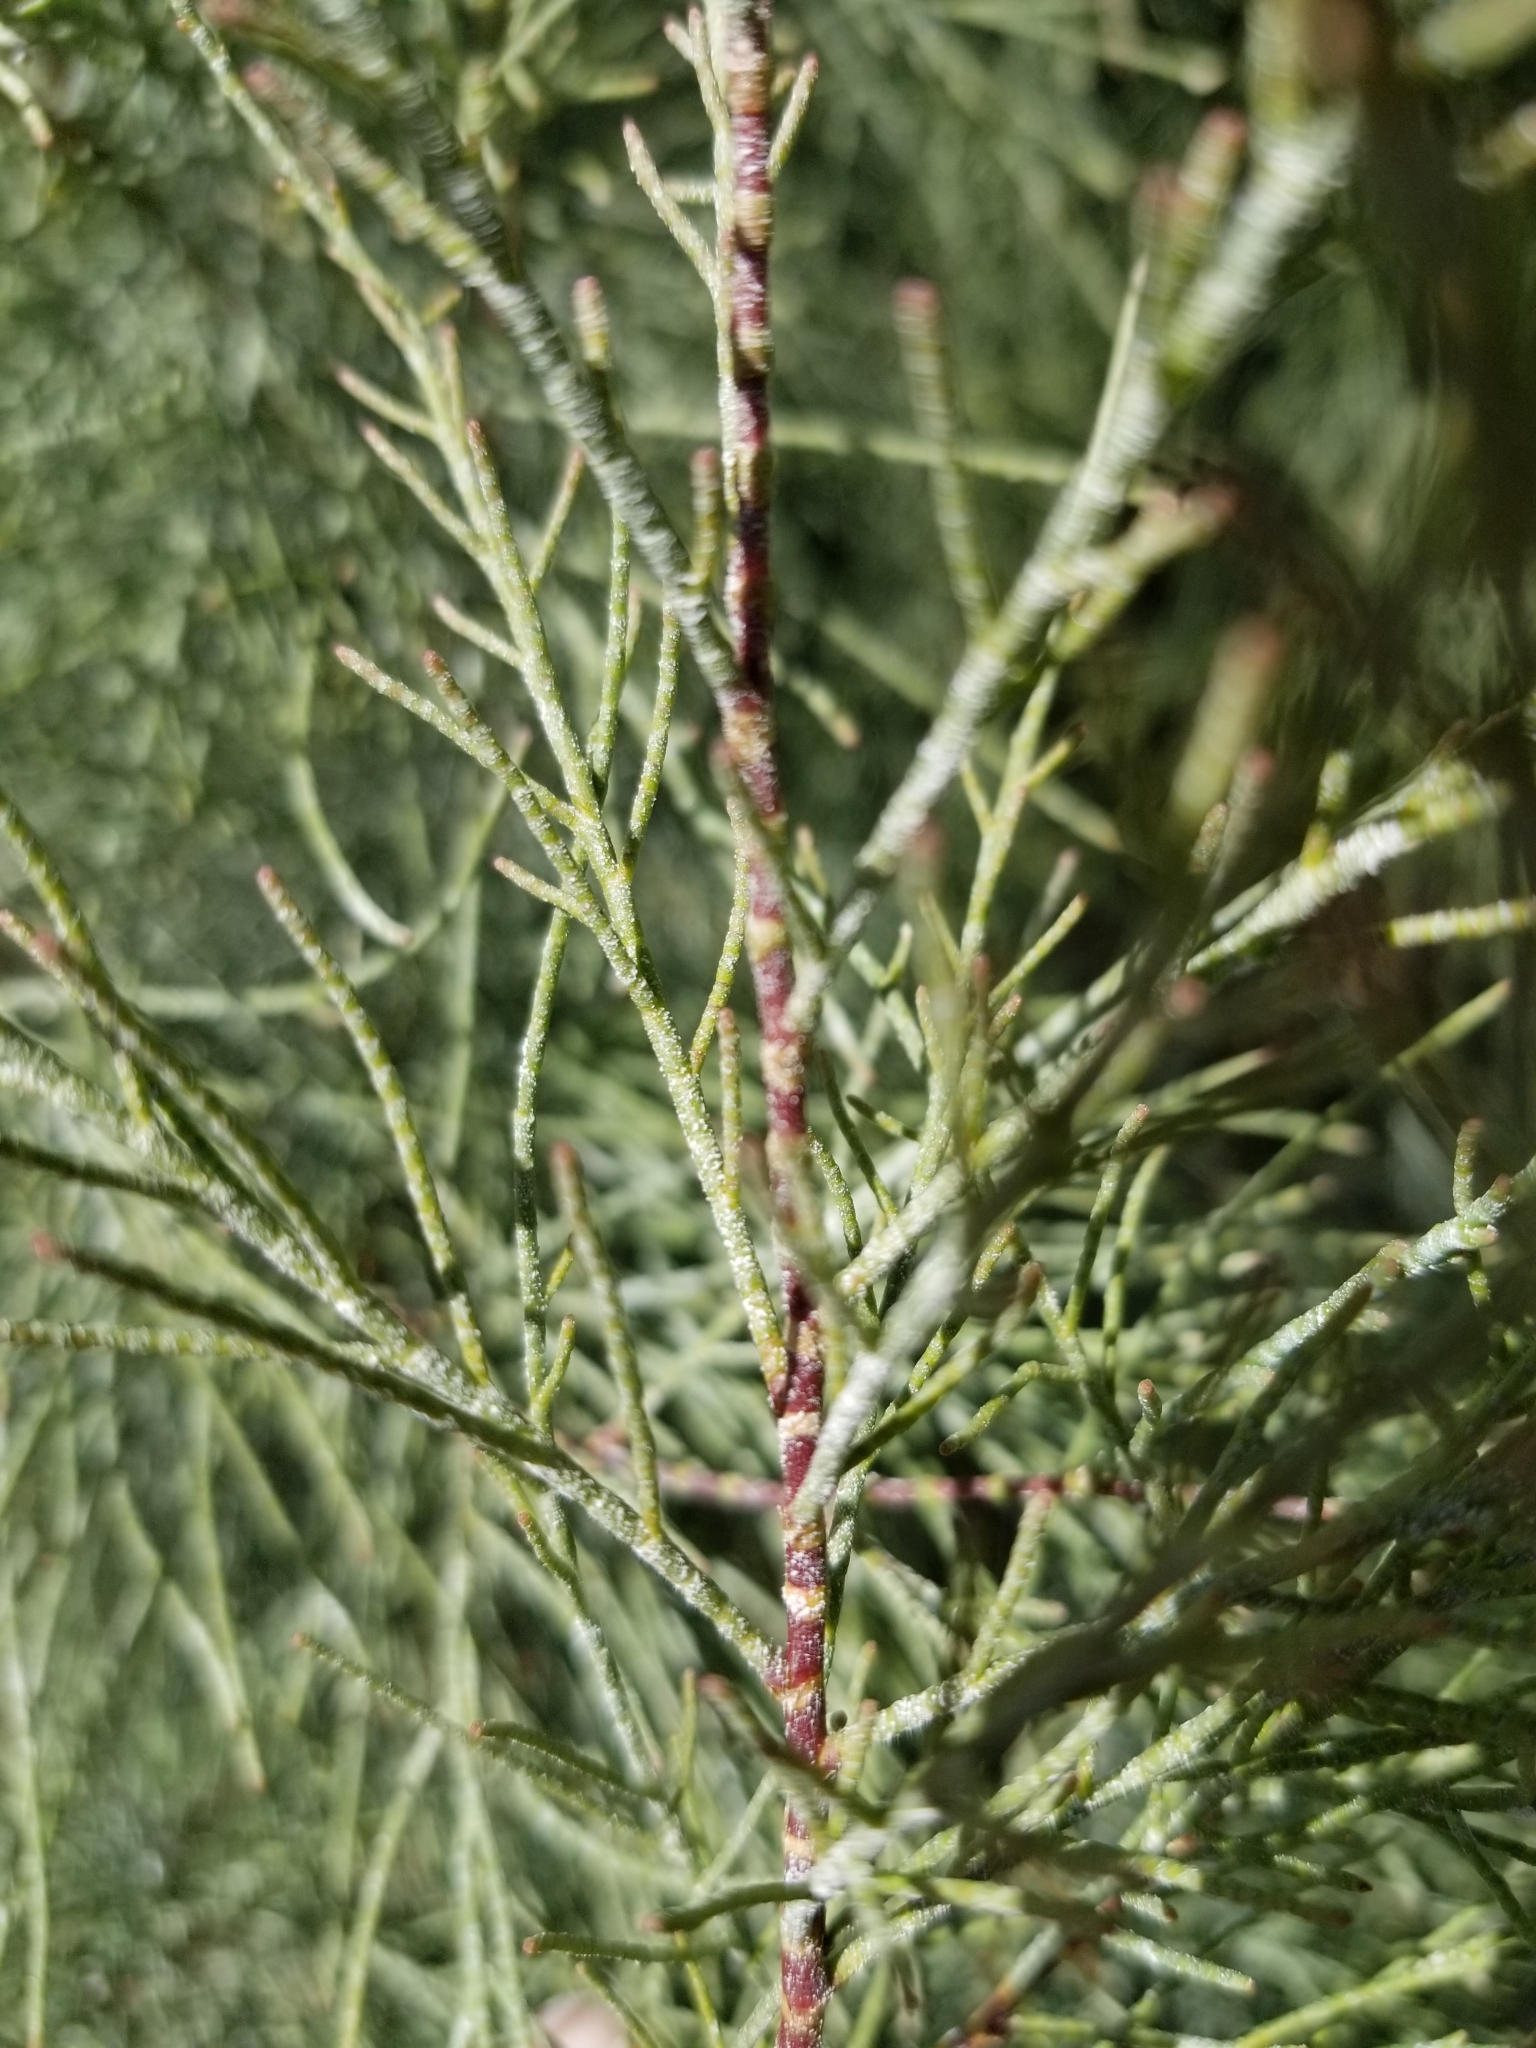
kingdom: Plantae
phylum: Tracheophyta
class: Magnoliopsida
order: Caryophyllales
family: Tamaricaceae
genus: Tamarix
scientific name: Tamarix aphylla
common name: Athel tamarisk
